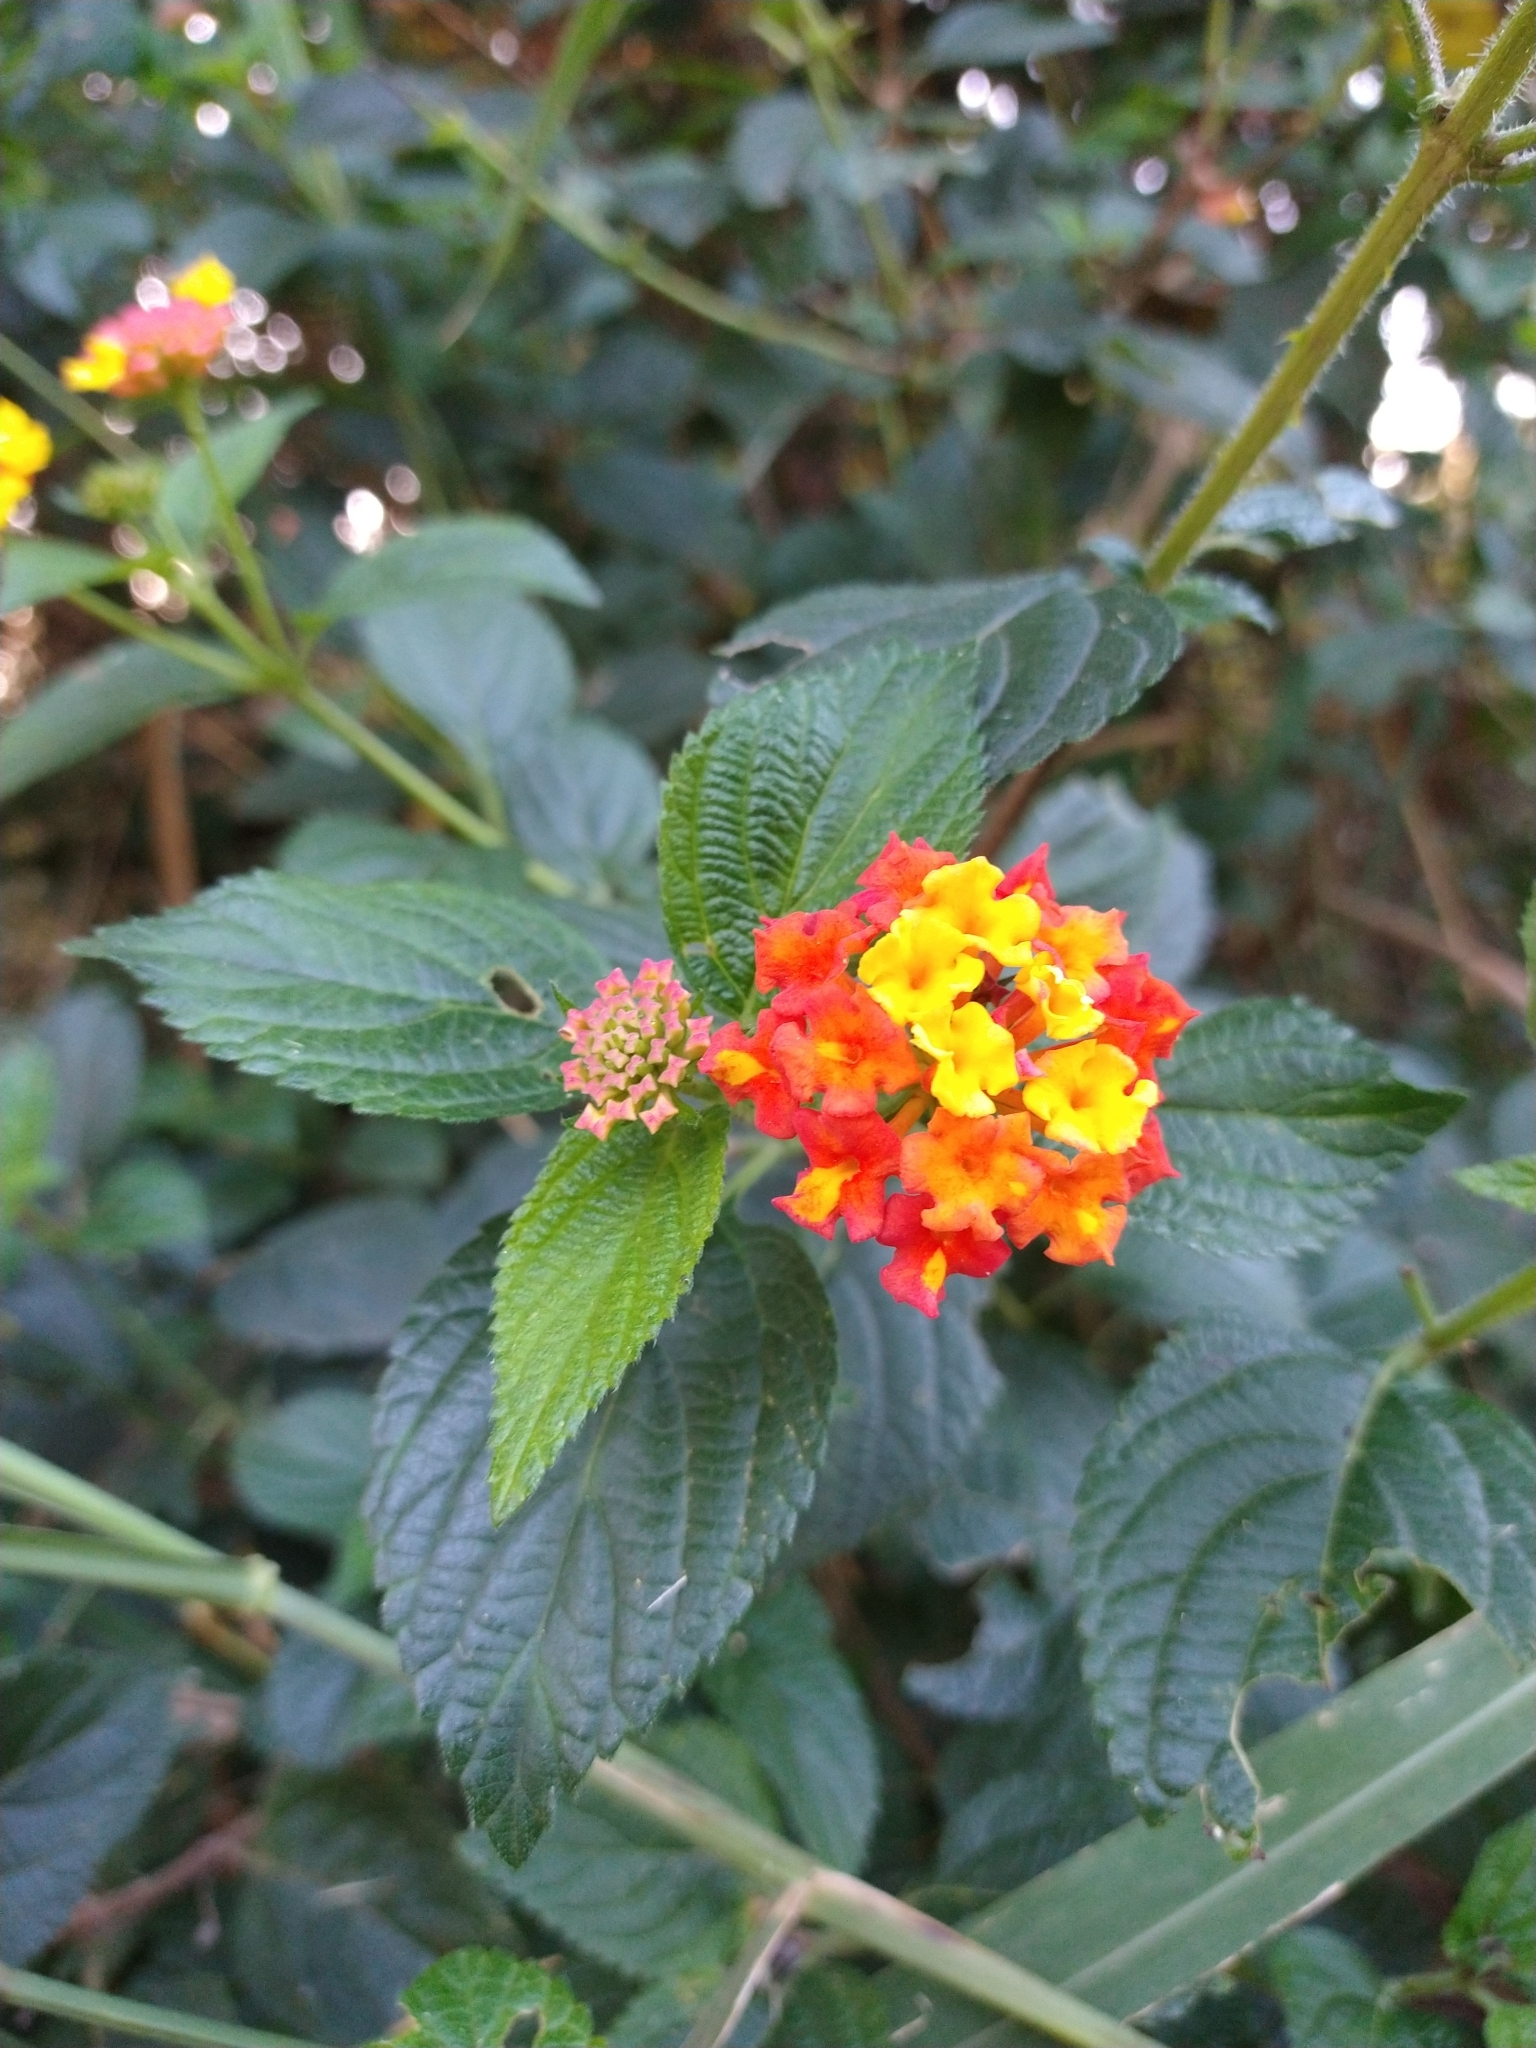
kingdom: Plantae
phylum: Tracheophyta
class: Magnoliopsida
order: Lamiales
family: Verbenaceae
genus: Lantana
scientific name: Lantana camara
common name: Lantana
